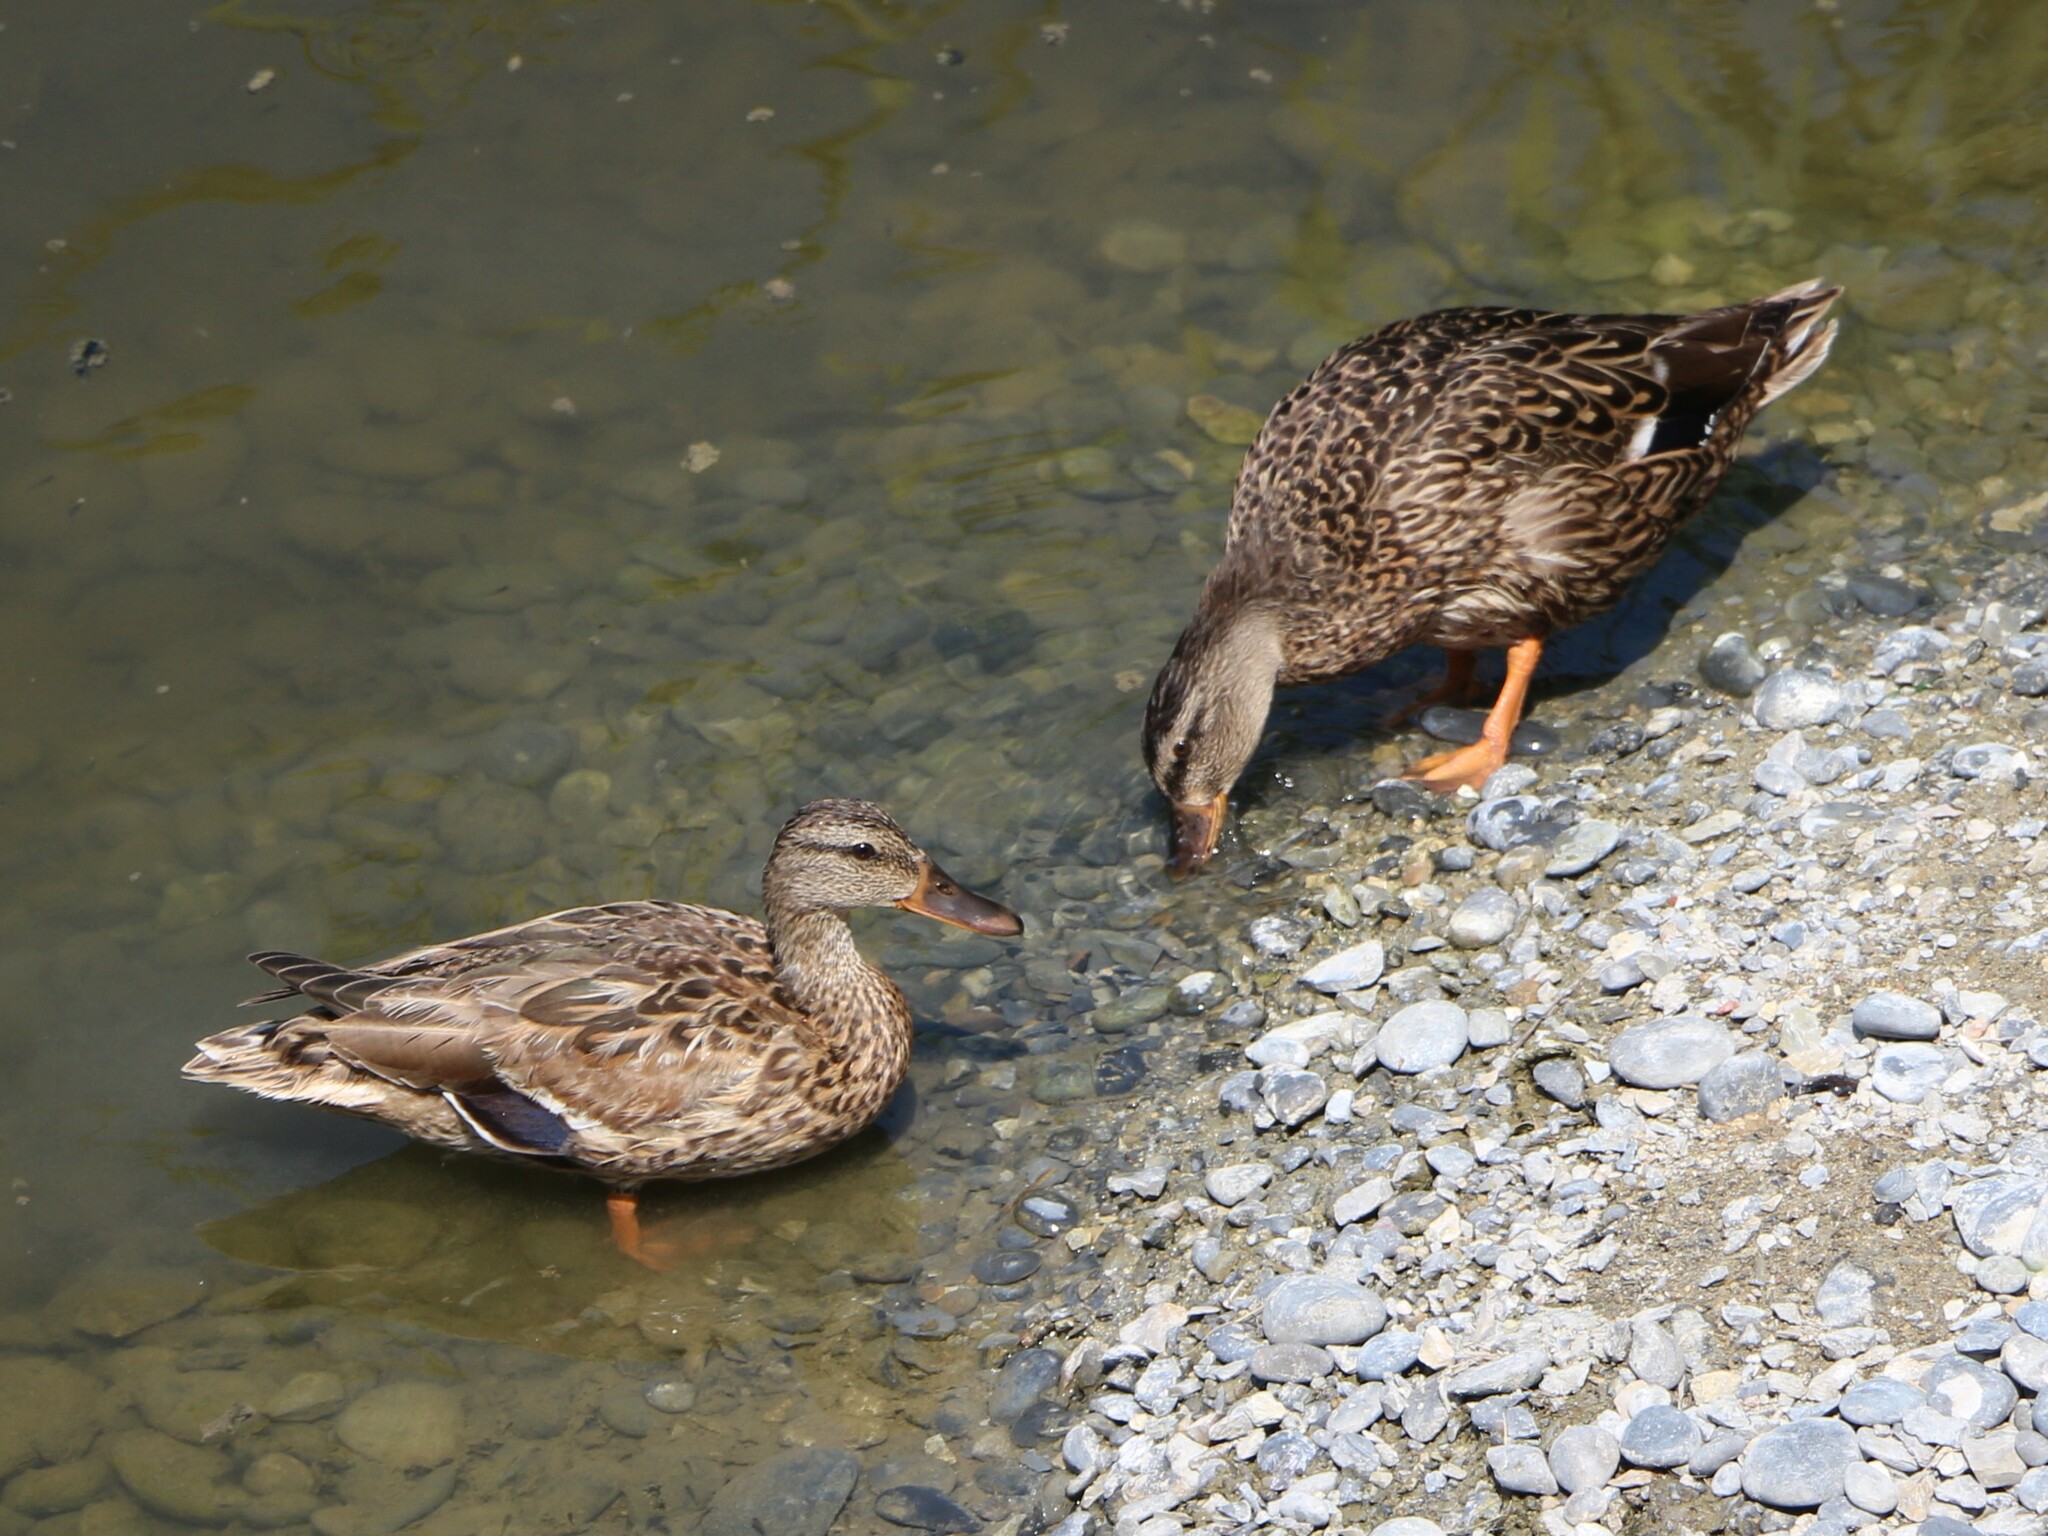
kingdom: Animalia
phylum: Chordata
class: Aves
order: Anseriformes
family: Anatidae
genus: Anas
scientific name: Anas platyrhynchos
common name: Mallard
